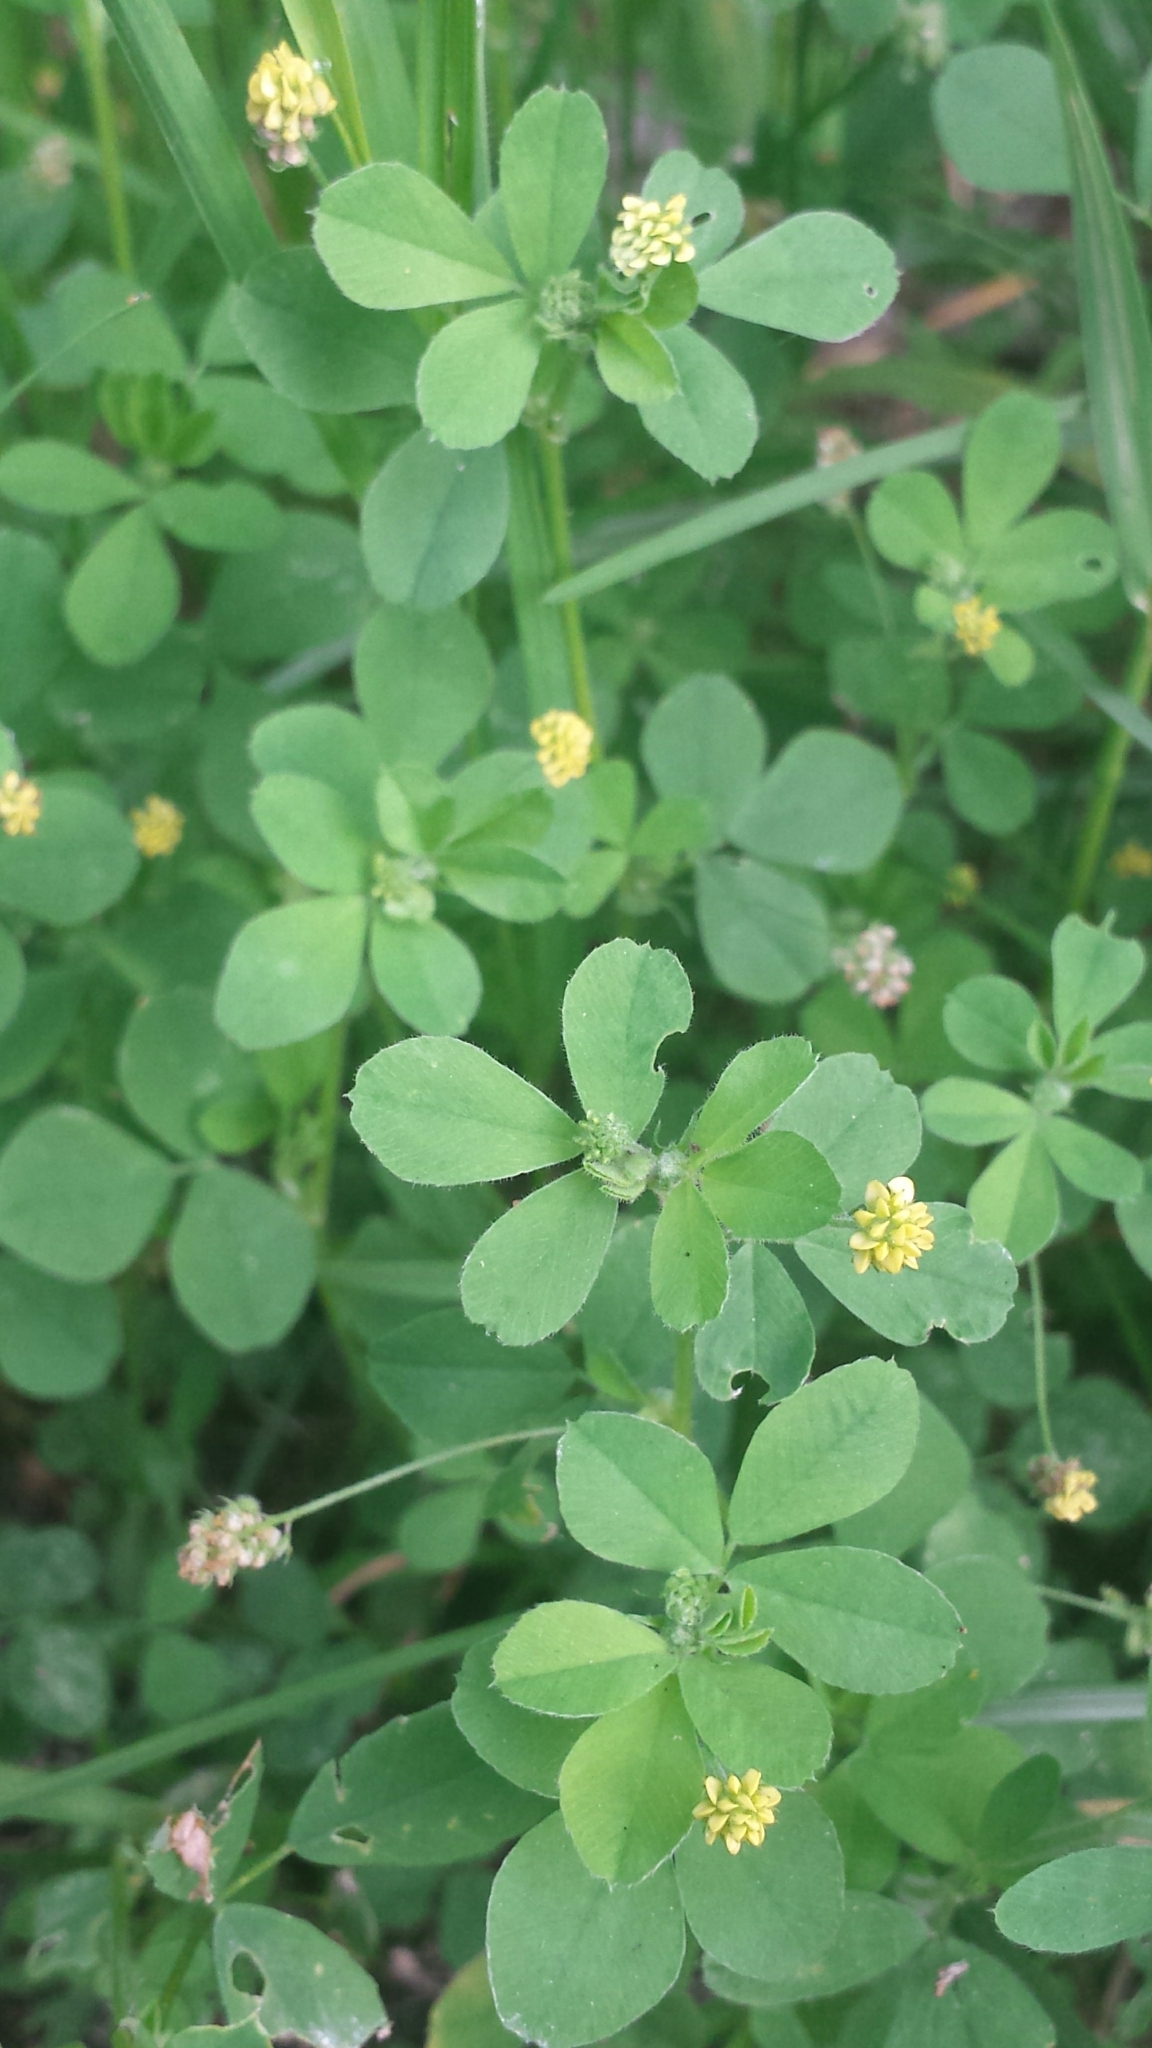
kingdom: Plantae
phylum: Tracheophyta
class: Magnoliopsida
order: Fabales
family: Fabaceae
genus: Medicago
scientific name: Medicago lupulina
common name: Black medick
